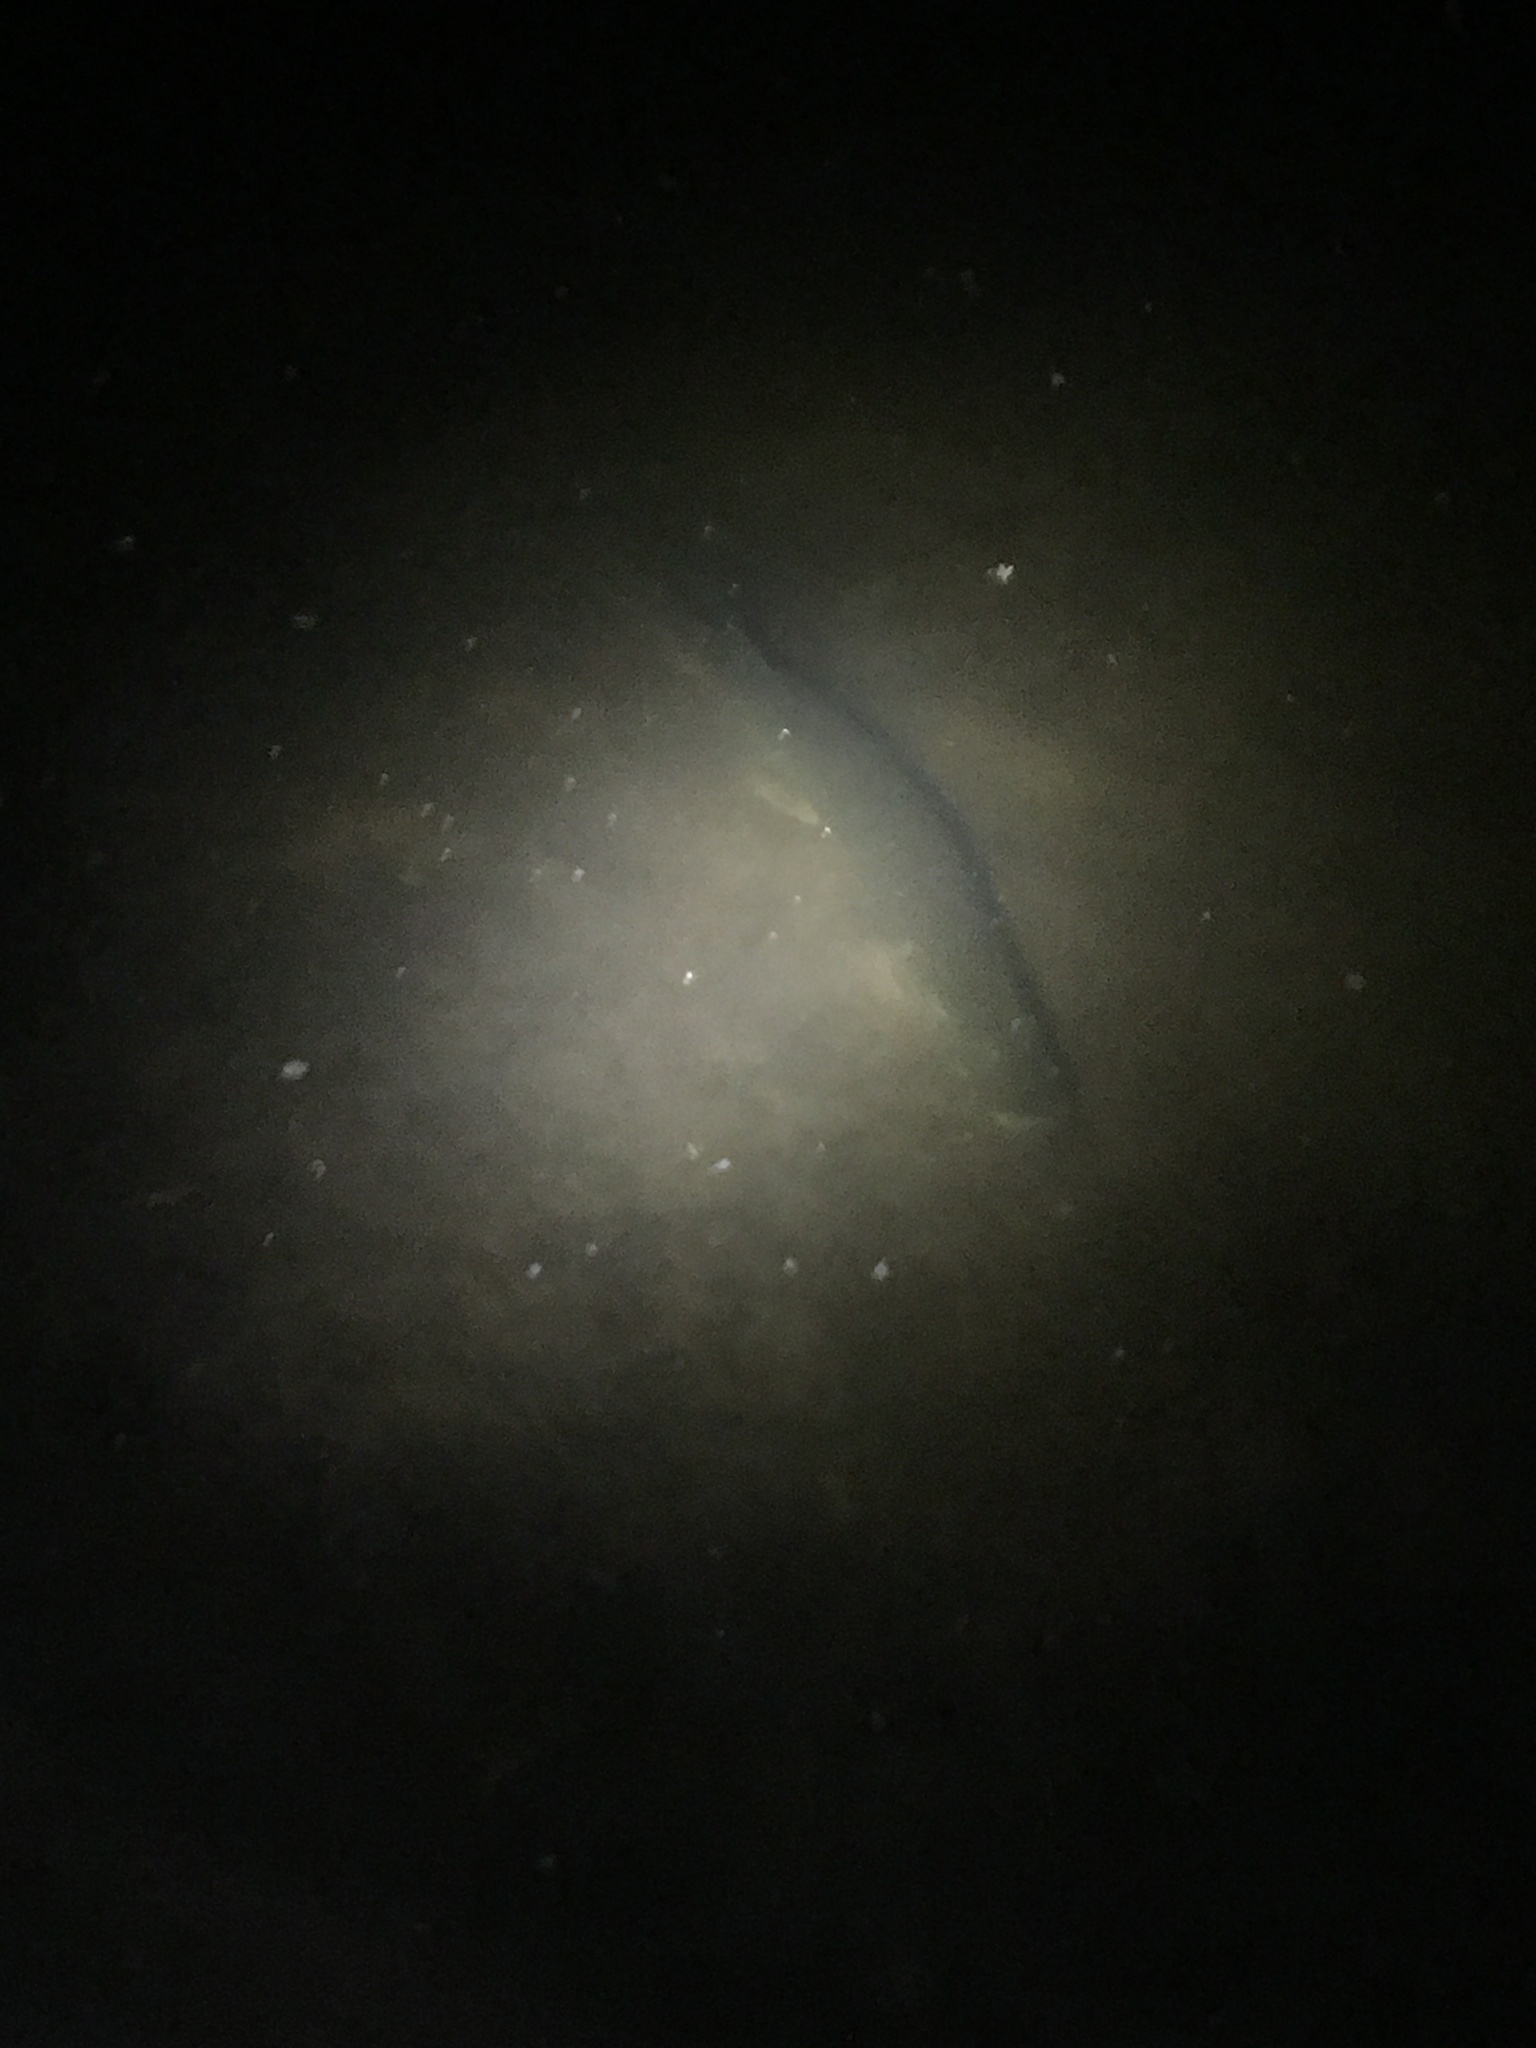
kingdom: Animalia
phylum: Chordata
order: Esociformes
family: Esocidae
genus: Esox
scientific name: Esox lucius
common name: Northern pike
